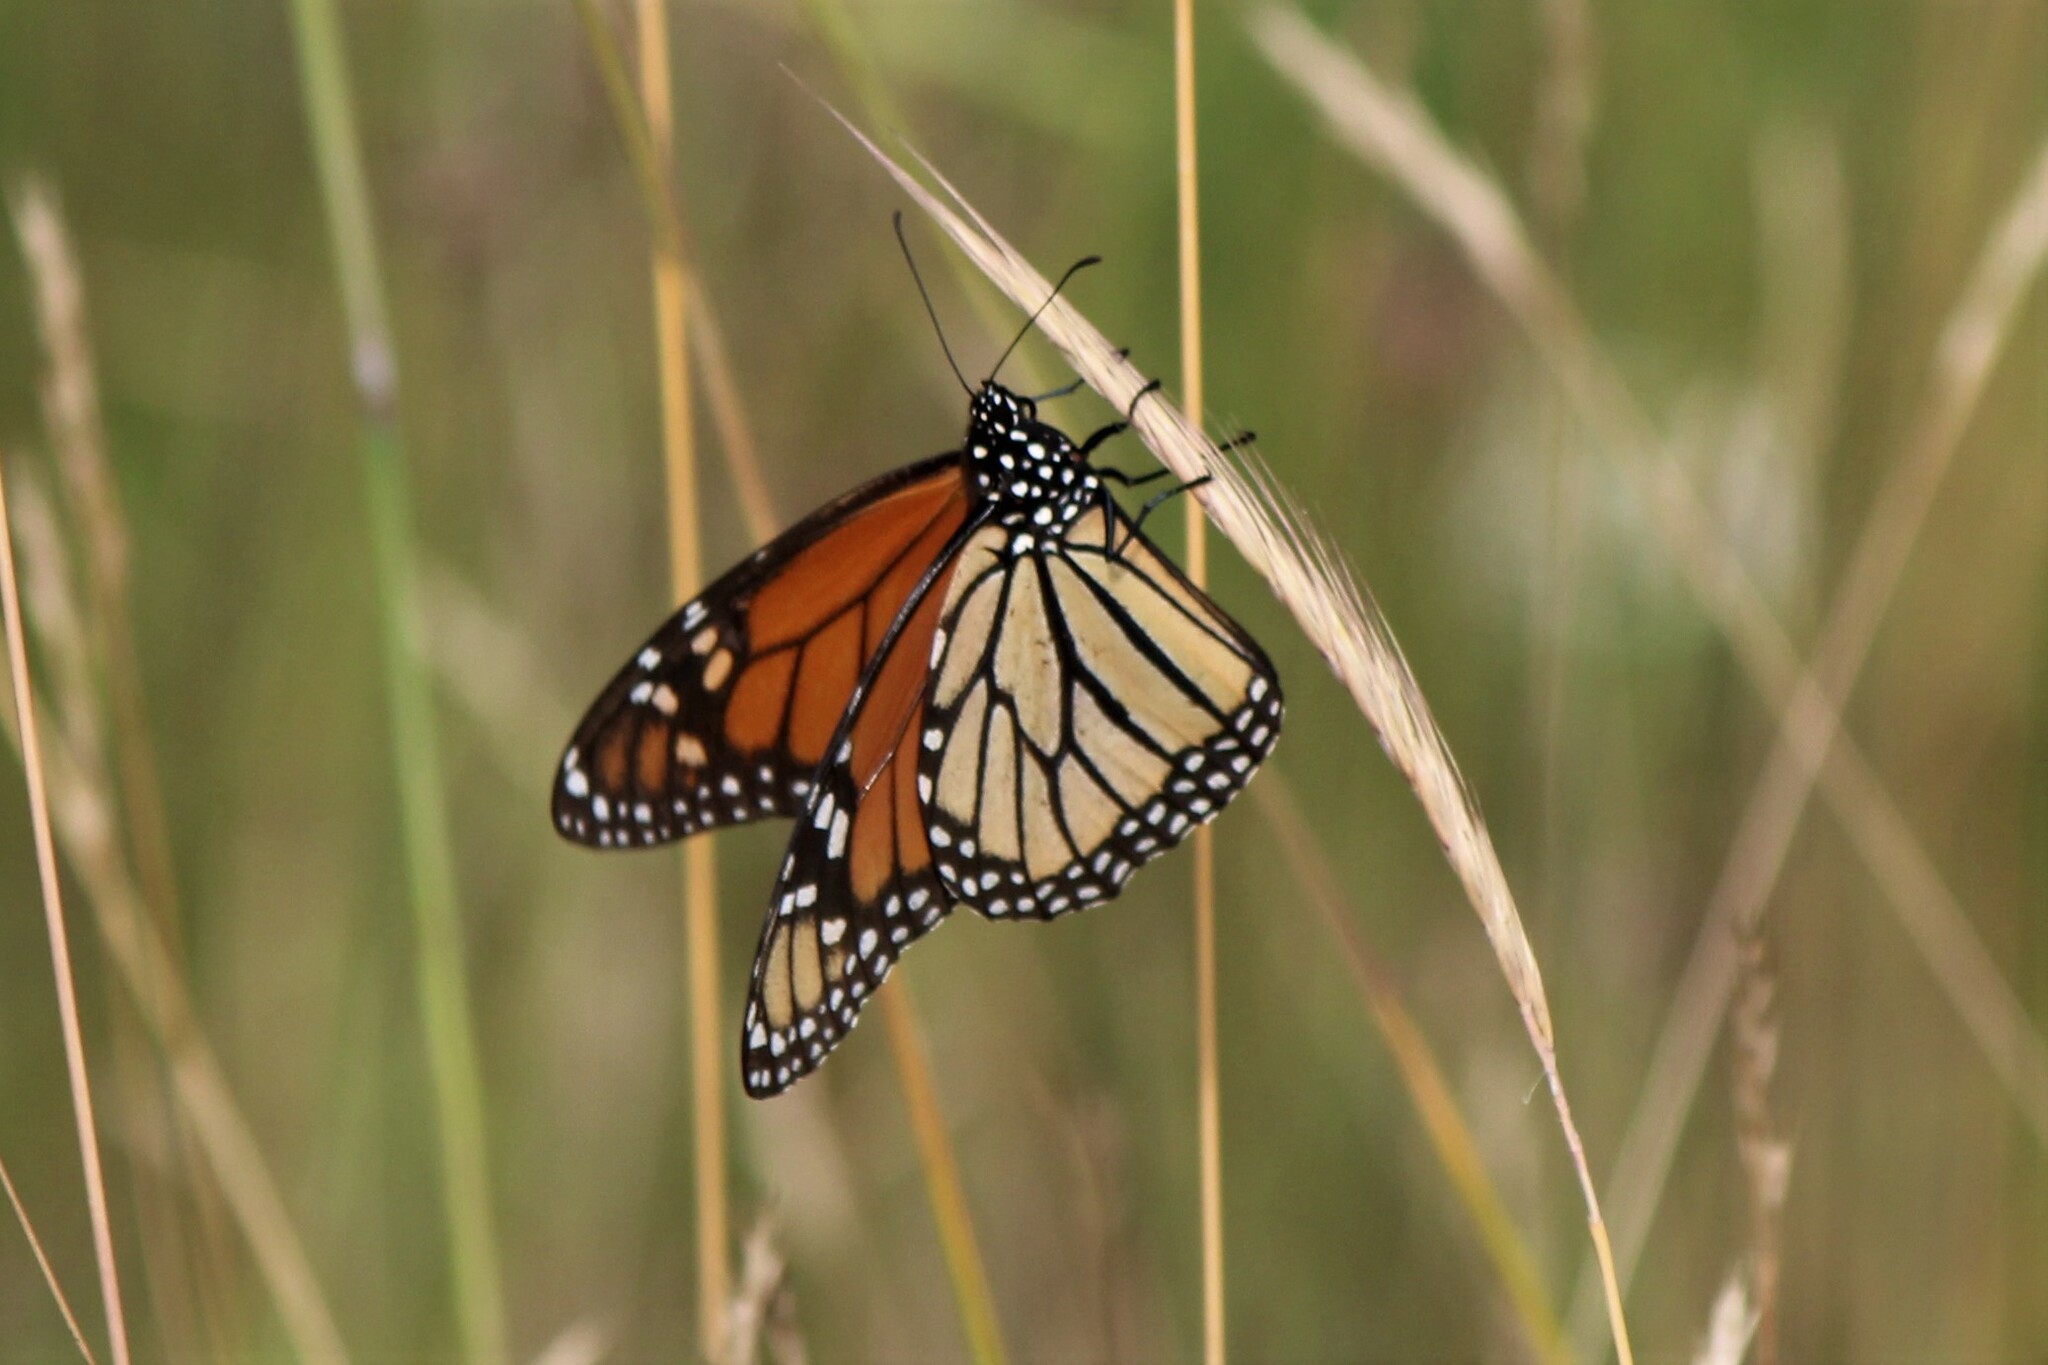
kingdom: Animalia
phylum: Arthropoda
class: Insecta
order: Lepidoptera
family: Nymphalidae
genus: Danaus
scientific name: Danaus plexippus
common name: Monarch
